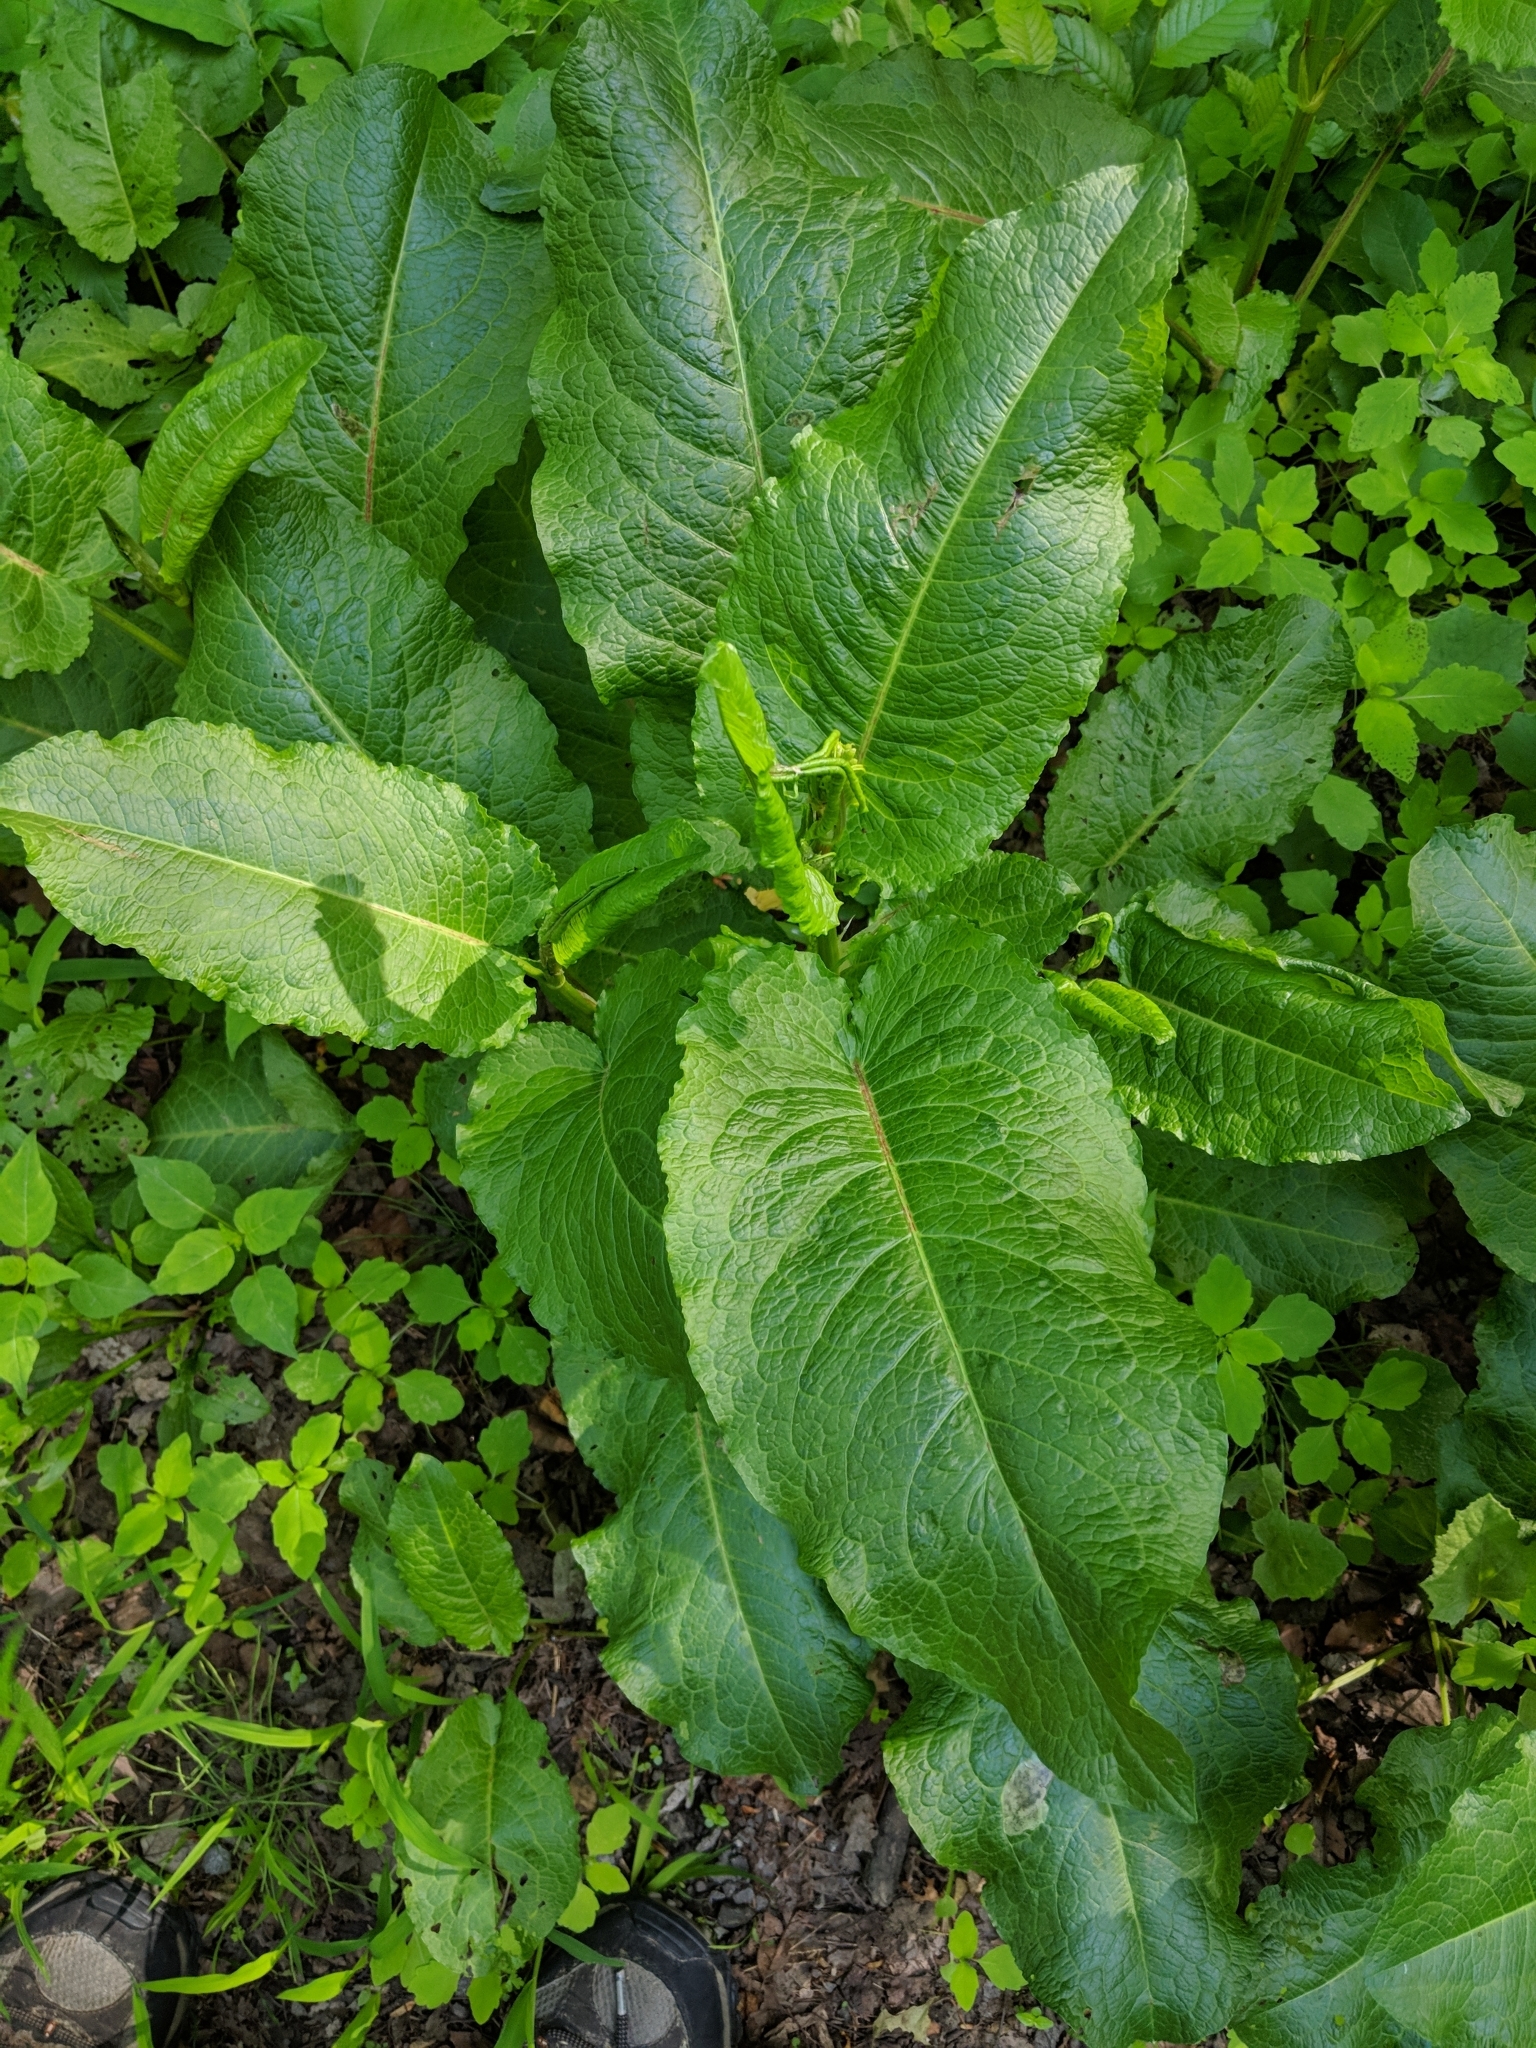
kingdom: Plantae
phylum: Tracheophyta
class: Magnoliopsida
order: Caryophyllales
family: Polygonaceae
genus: Rumex
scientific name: Rumex obtusifolius
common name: Bitter dock
